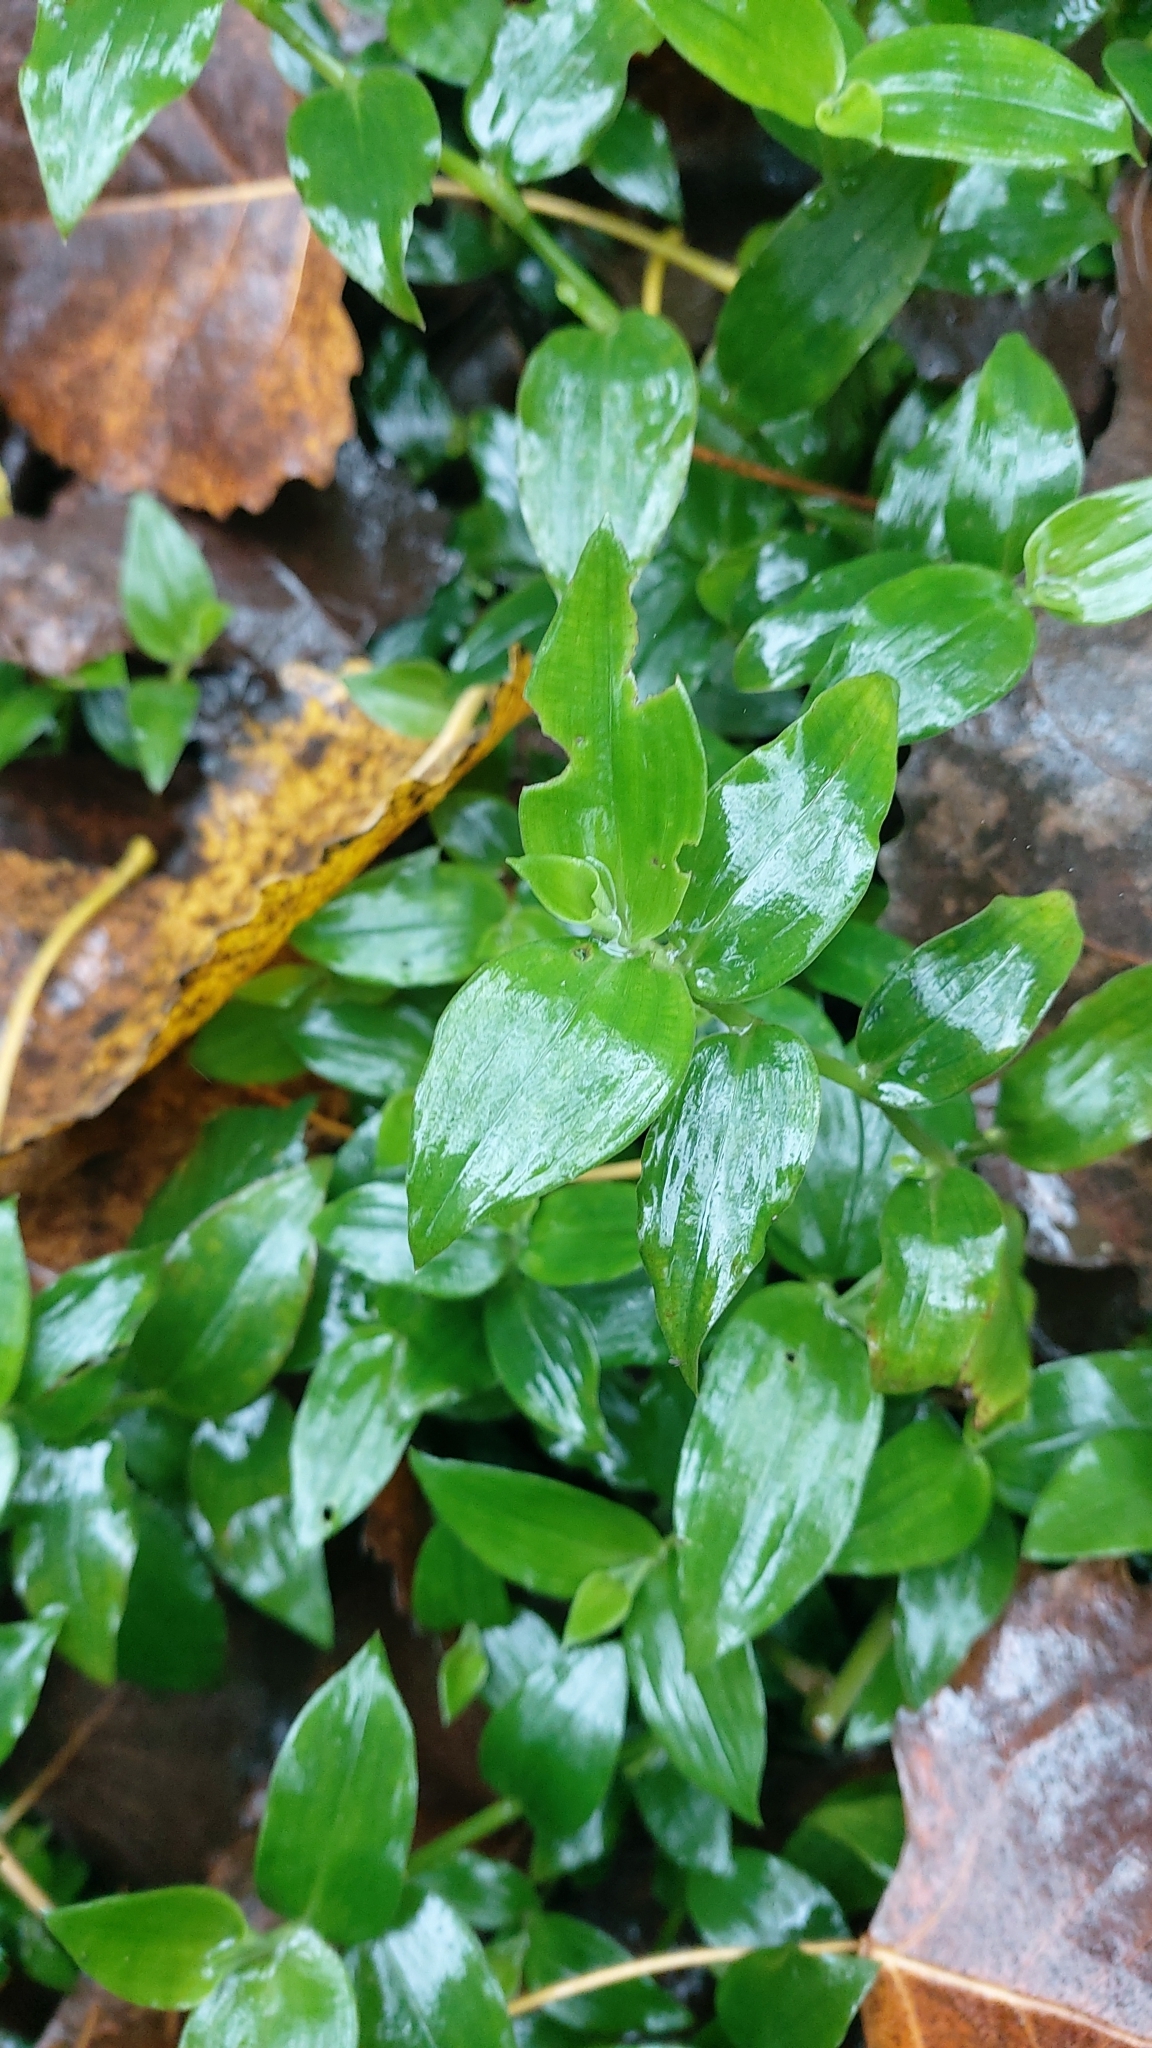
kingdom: Plantae
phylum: Tracheophyta
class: Liliopsida
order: Commelinales
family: Commelinaceae
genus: Tradescantia
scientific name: Tradescantia fluminensis
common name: Wandering-jew
